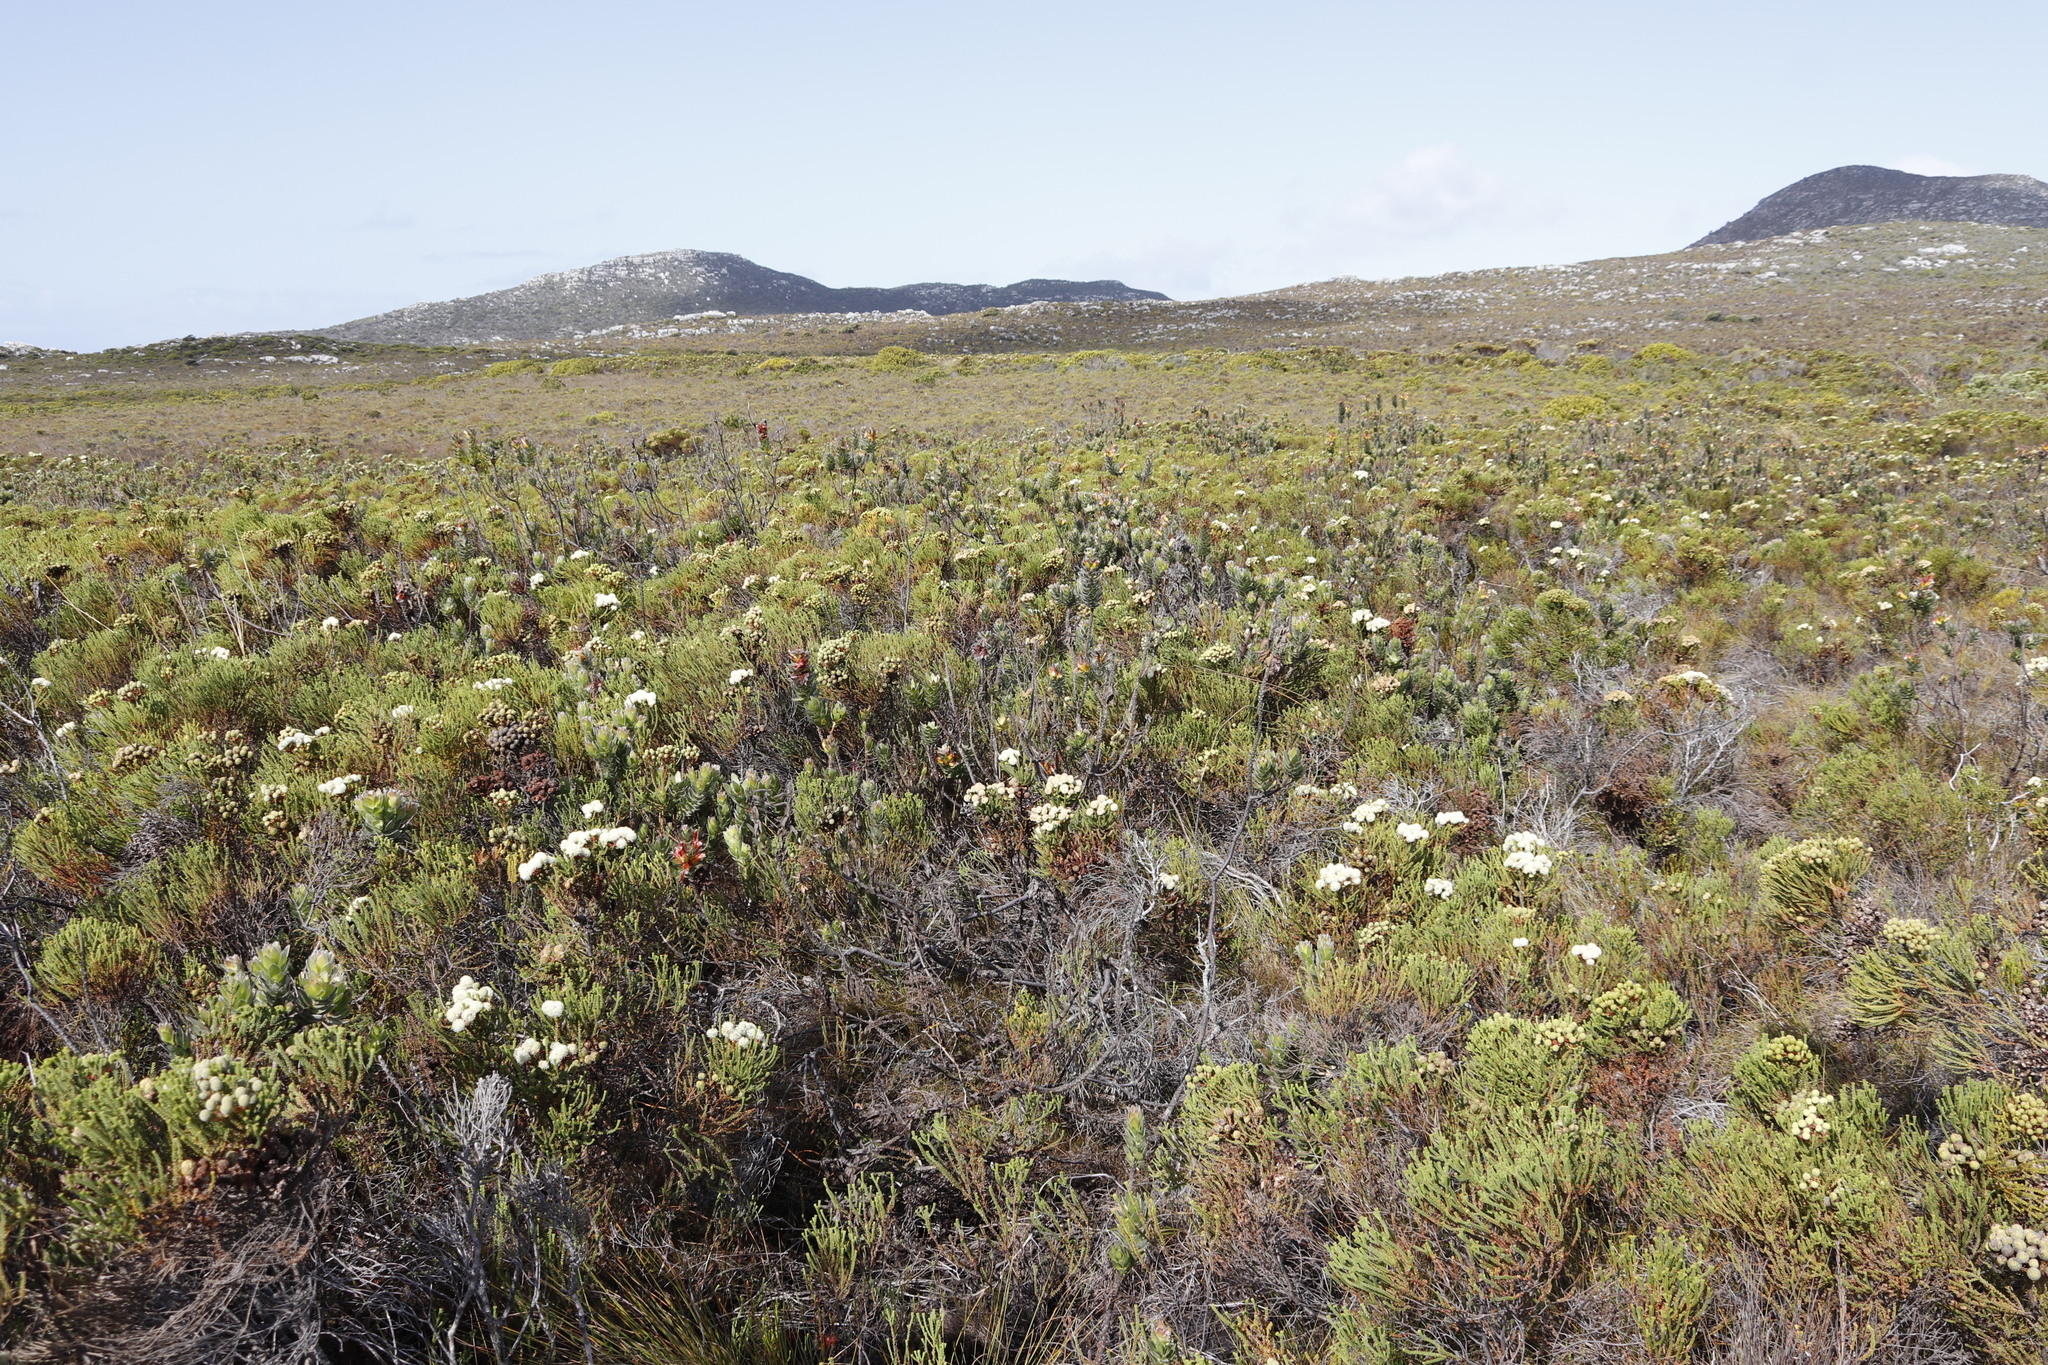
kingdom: Plantae
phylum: Tracheophyta
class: Magnoliopsida
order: Proteales
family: Proteaceae
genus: Mimetes
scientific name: Mimetes hirtus
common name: Marsh pagoda
